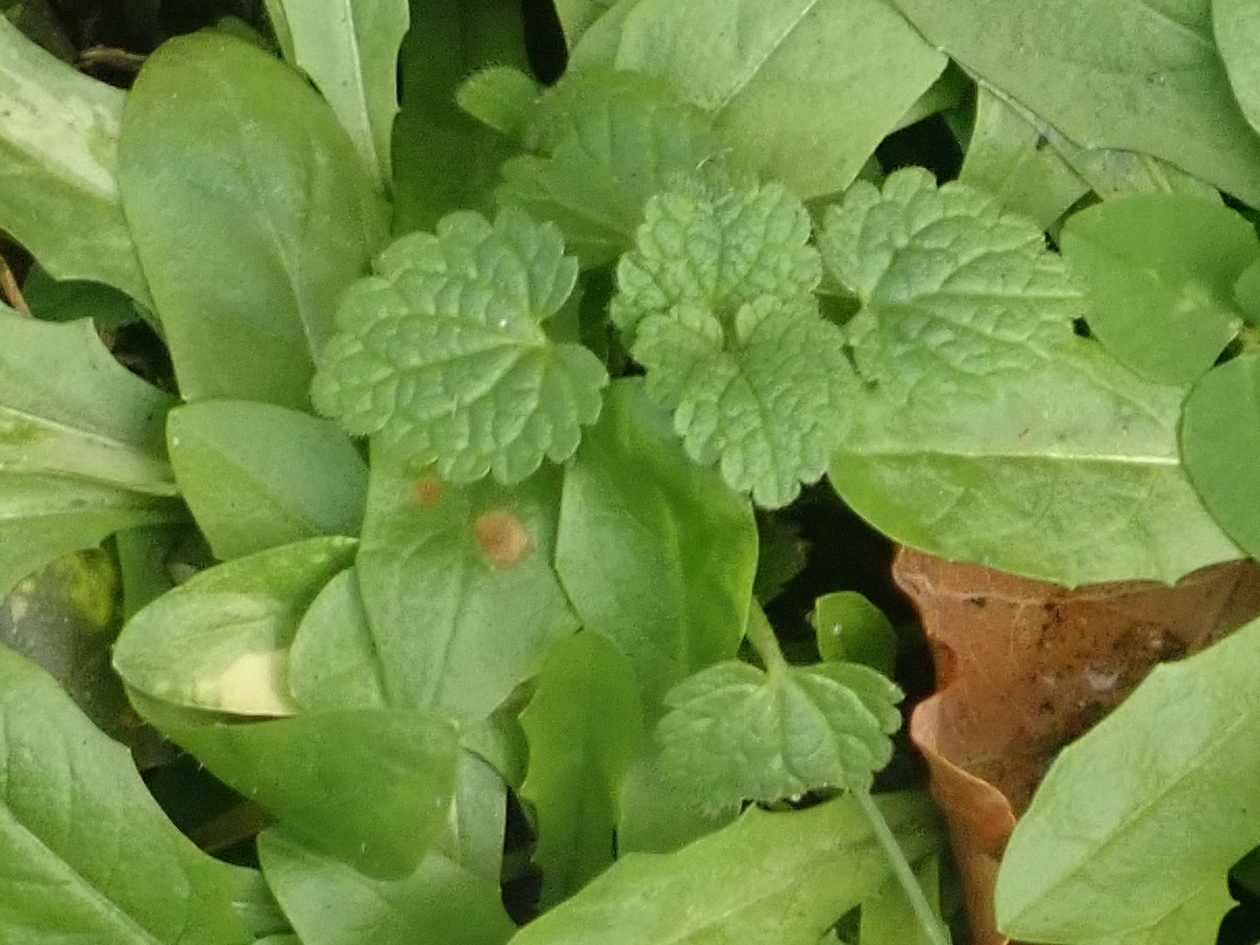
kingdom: Plantae
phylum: Tracheophyta
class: Magnoliopsida
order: Lamiales
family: Lamiaceae
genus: Lamium
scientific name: Lamium purpureum
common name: Red dead-nettle
